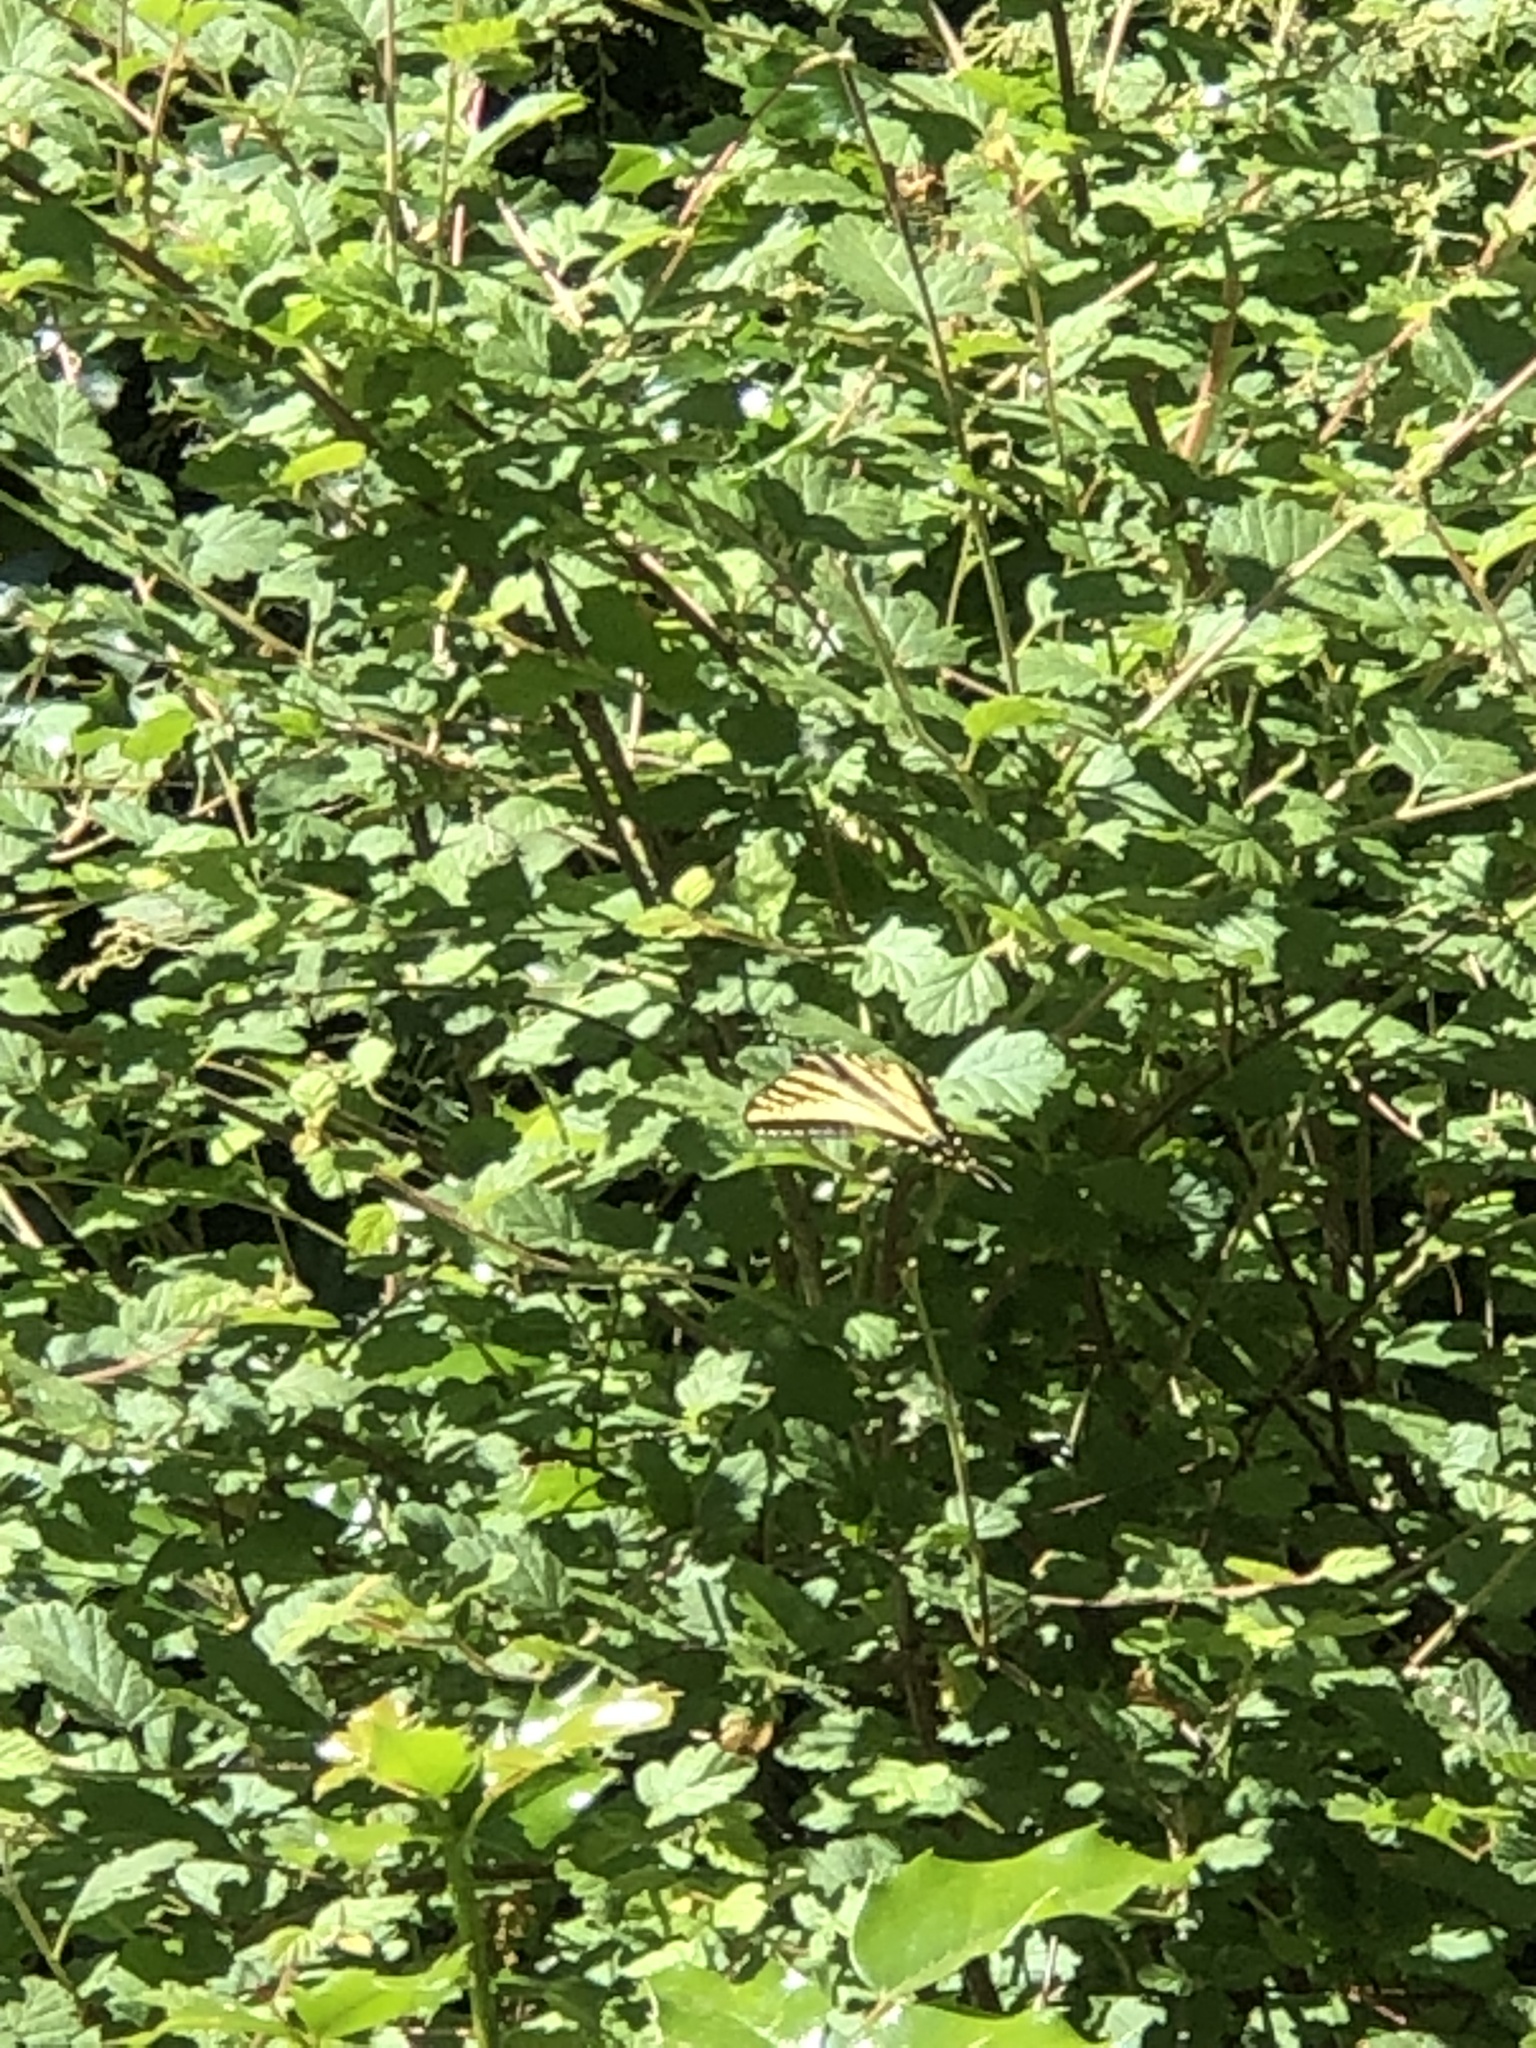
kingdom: Animalia
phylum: Arthropoda
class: Insecta
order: Lepidoptera
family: Papilionidae
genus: Papilio
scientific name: Papilio rutulus
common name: Western tiger swallowtail
